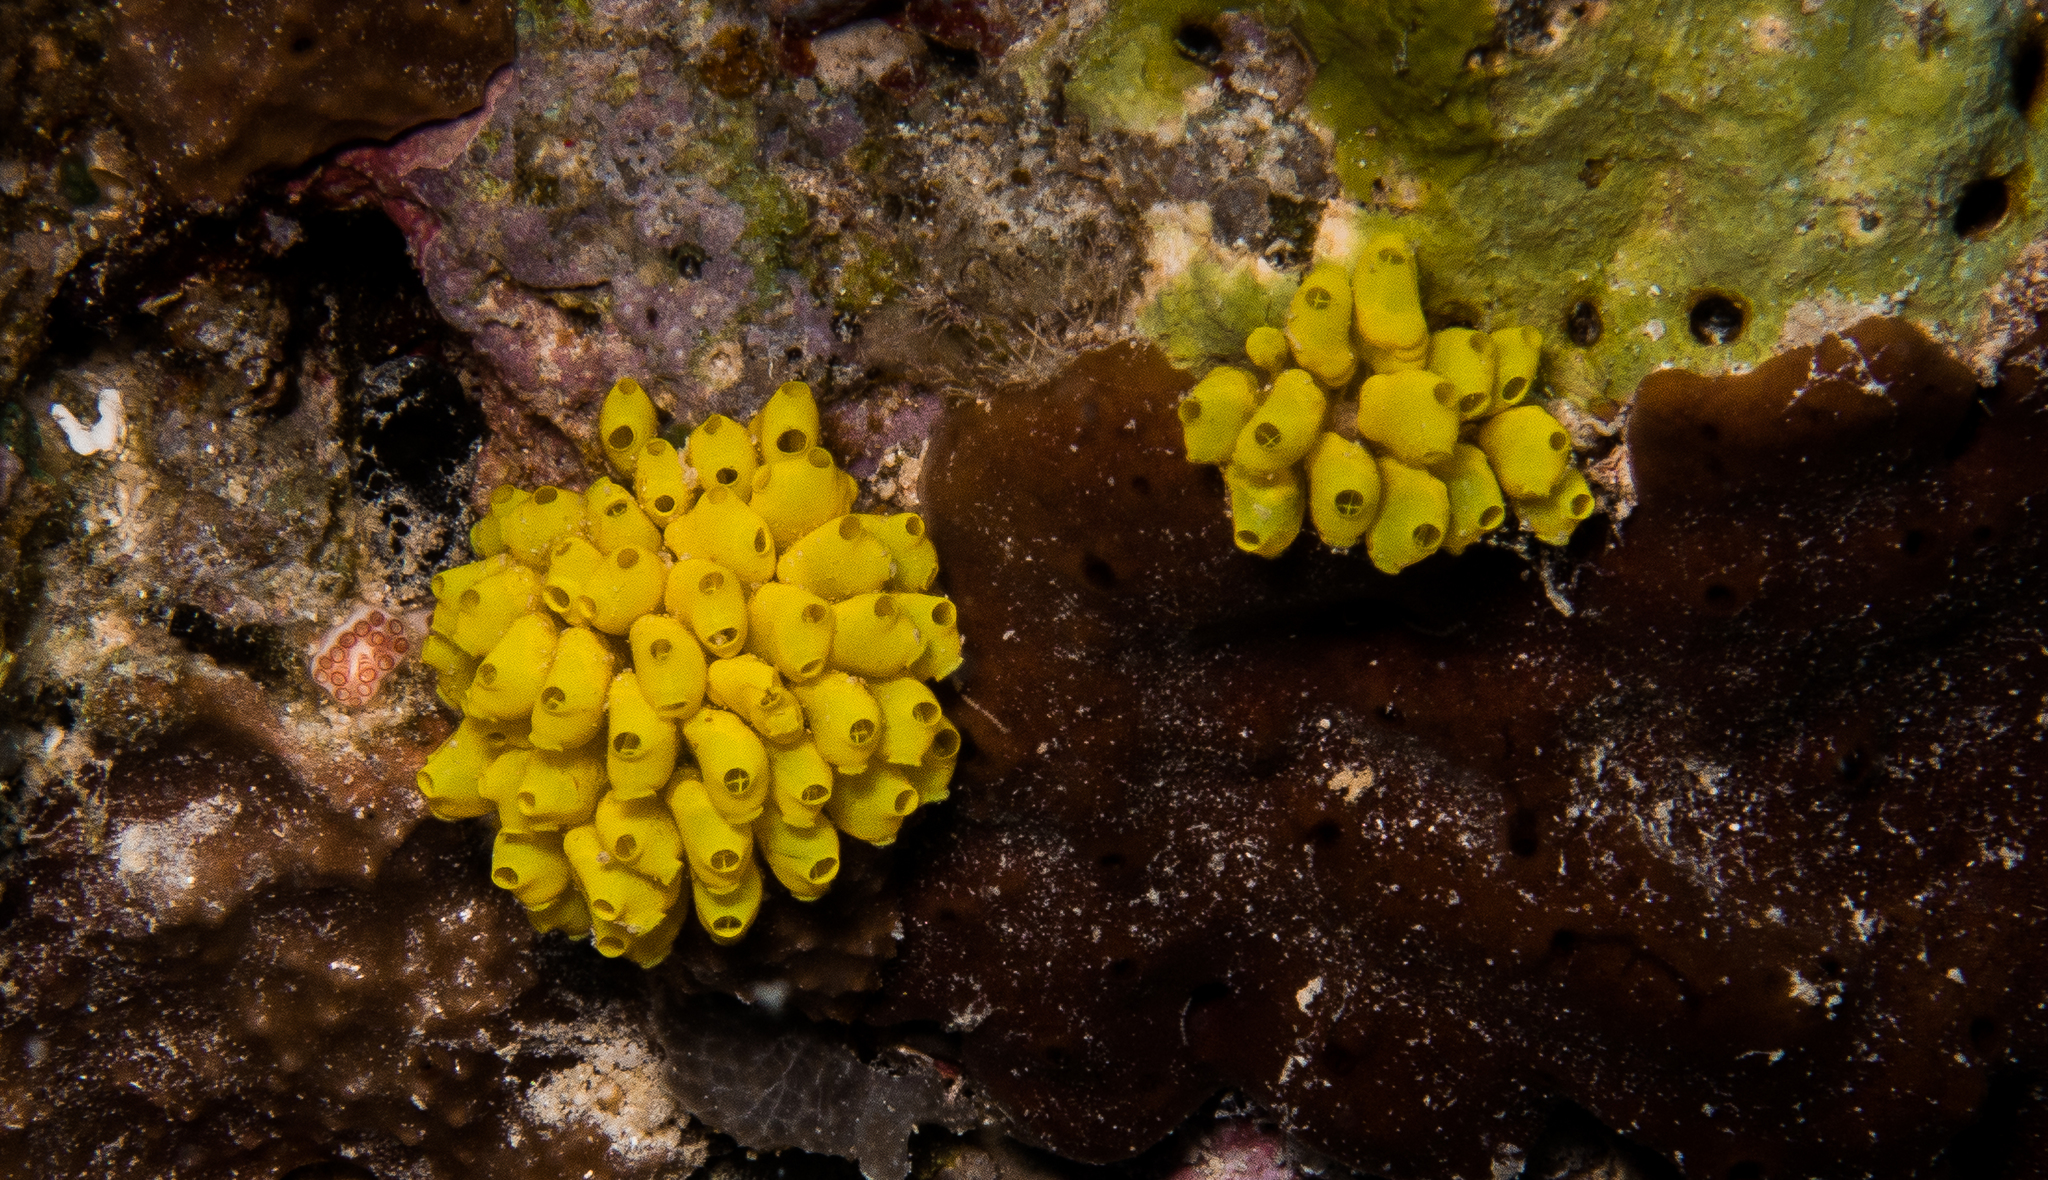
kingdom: Animalia
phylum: Chordata
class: Ascidiacea
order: Phlebobranchia
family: Perophoridae
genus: Perophora
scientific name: Perophora modificata
